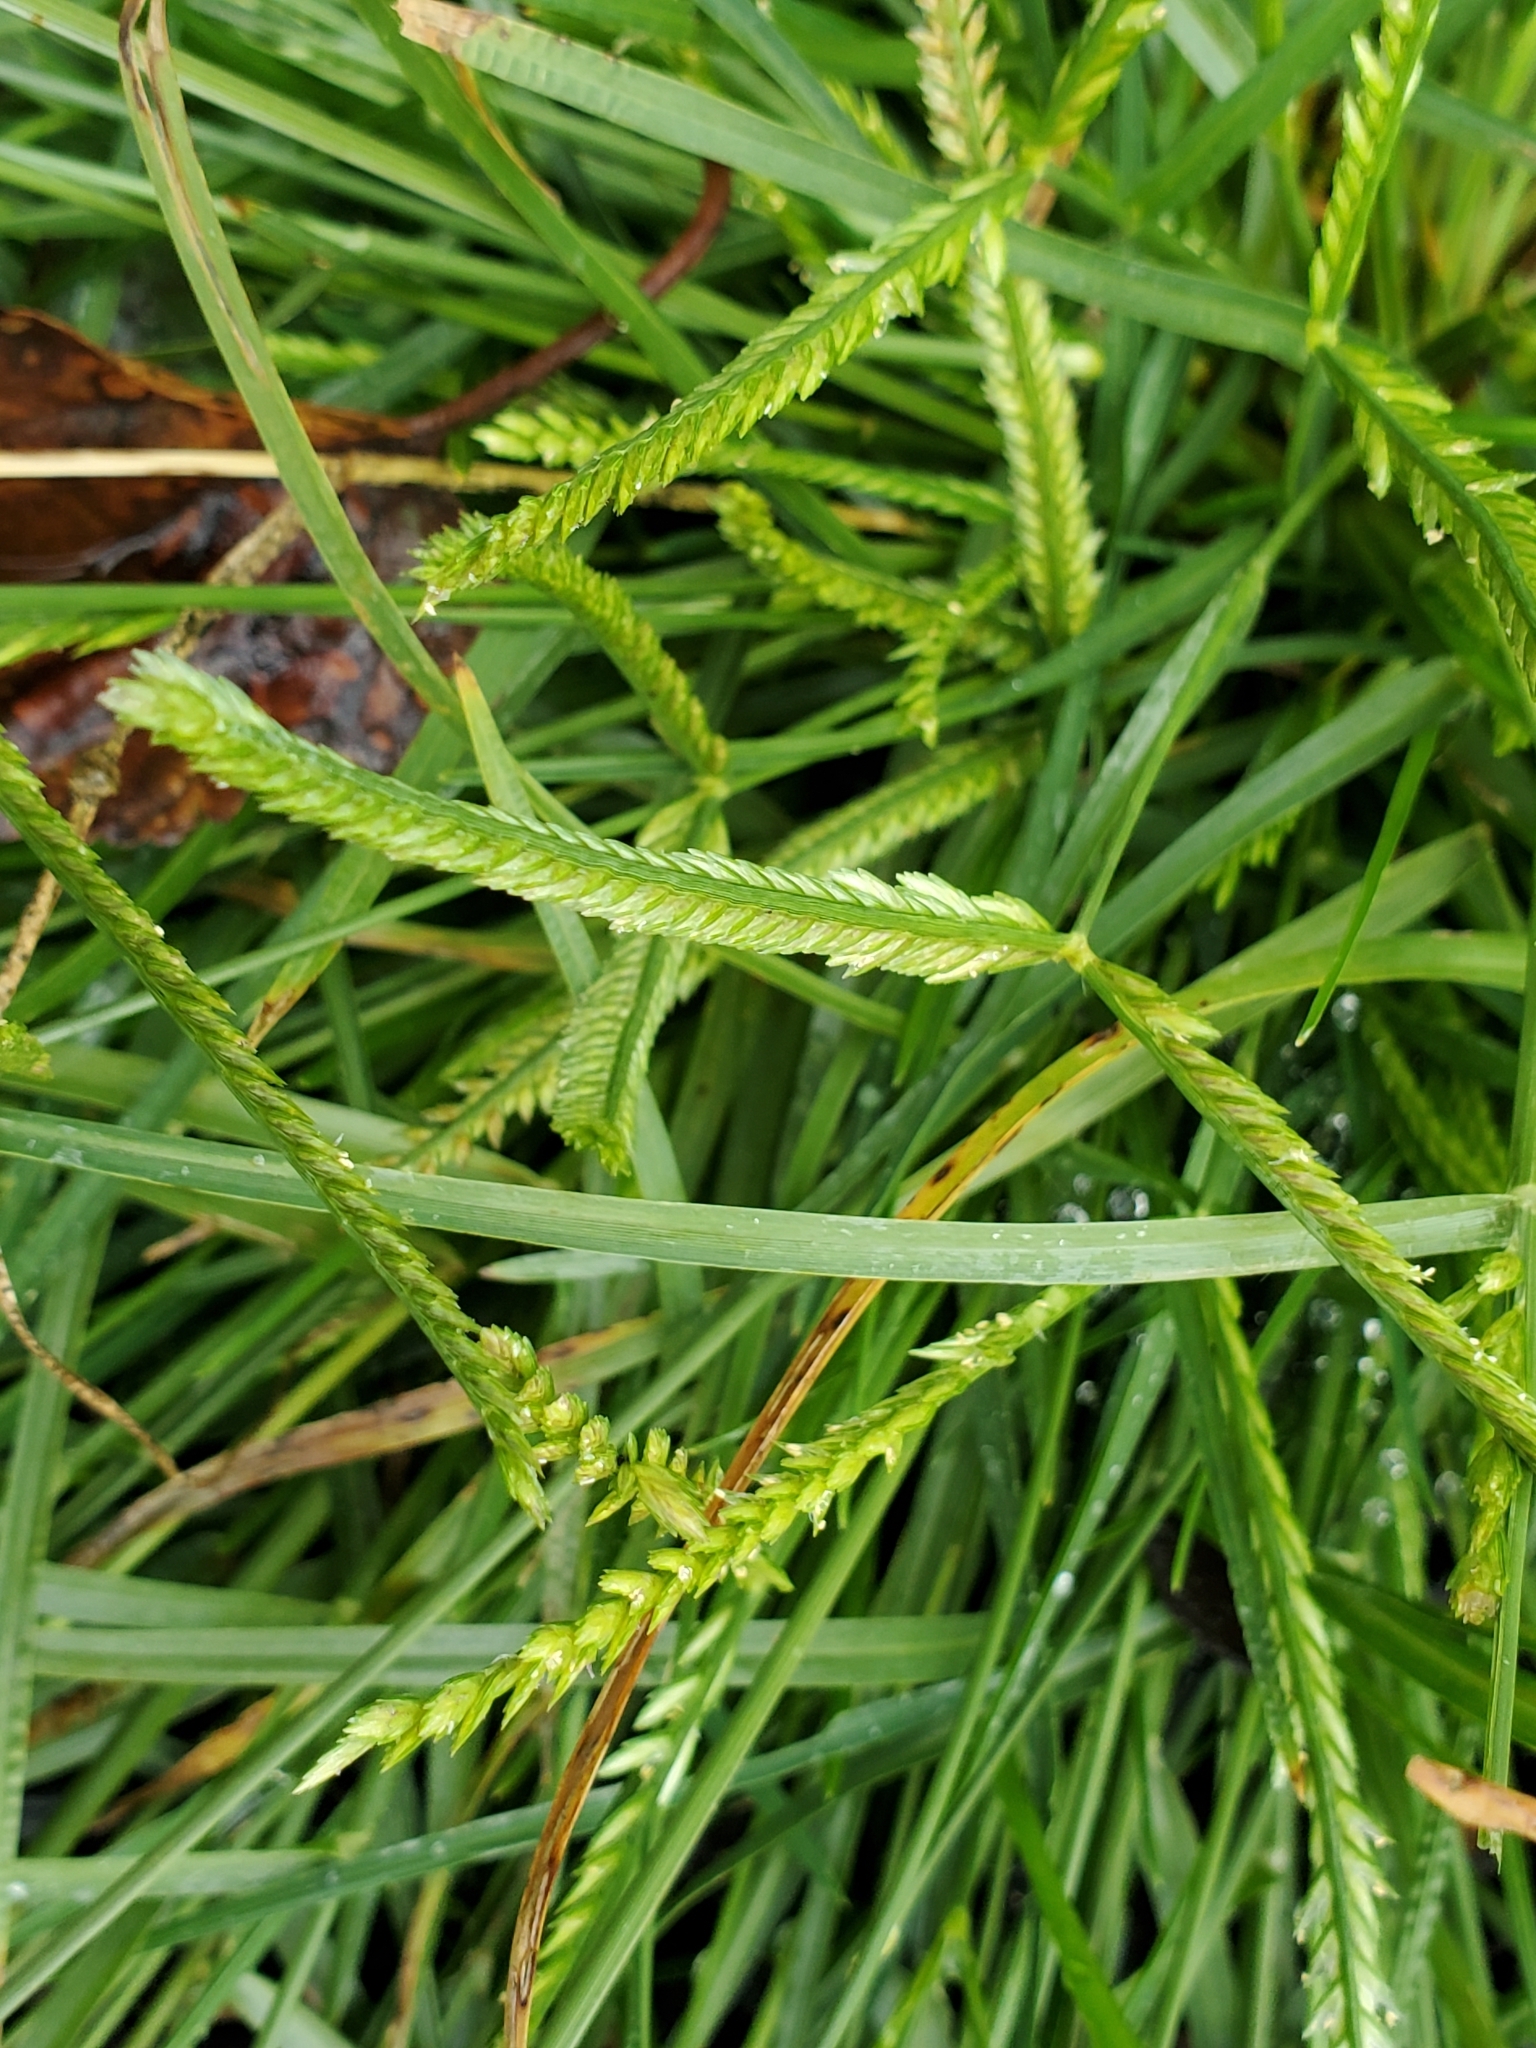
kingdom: Plantae
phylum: Tracheophyta
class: Liliopsida
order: Poales
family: Poaceae
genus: Eleusine
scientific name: Eleusine indica
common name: Yard-grass
